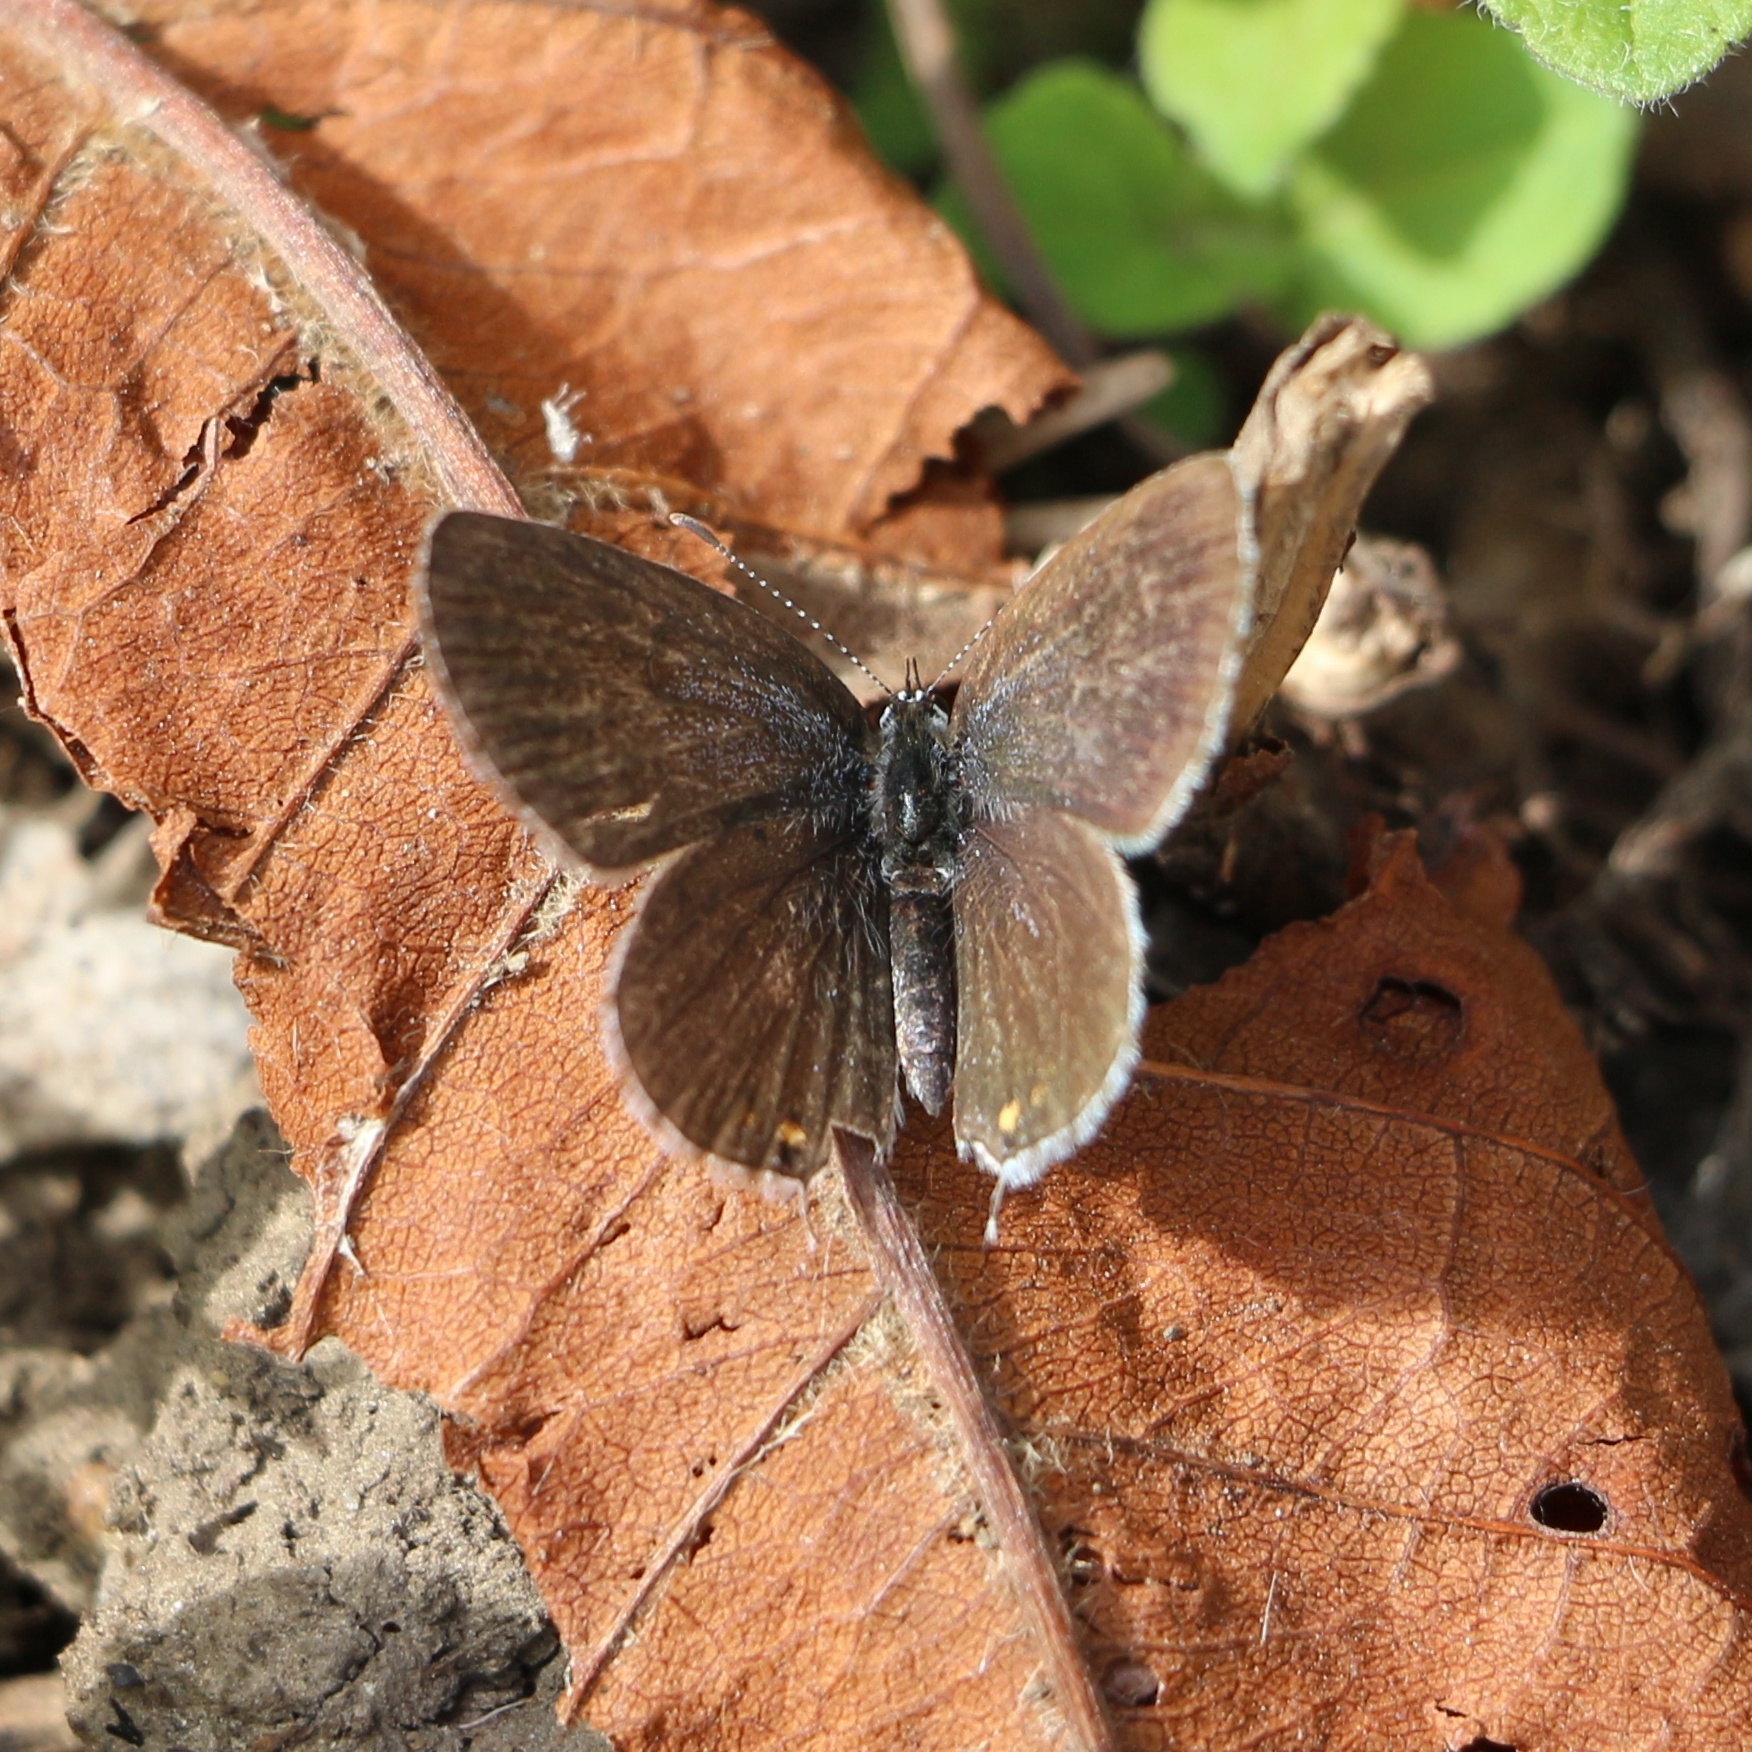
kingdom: Animalia
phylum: Arthropoda
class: Insecta
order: Lepidoptera
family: Lycaenidae
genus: Elkalyce
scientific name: Elkalyce argiades
